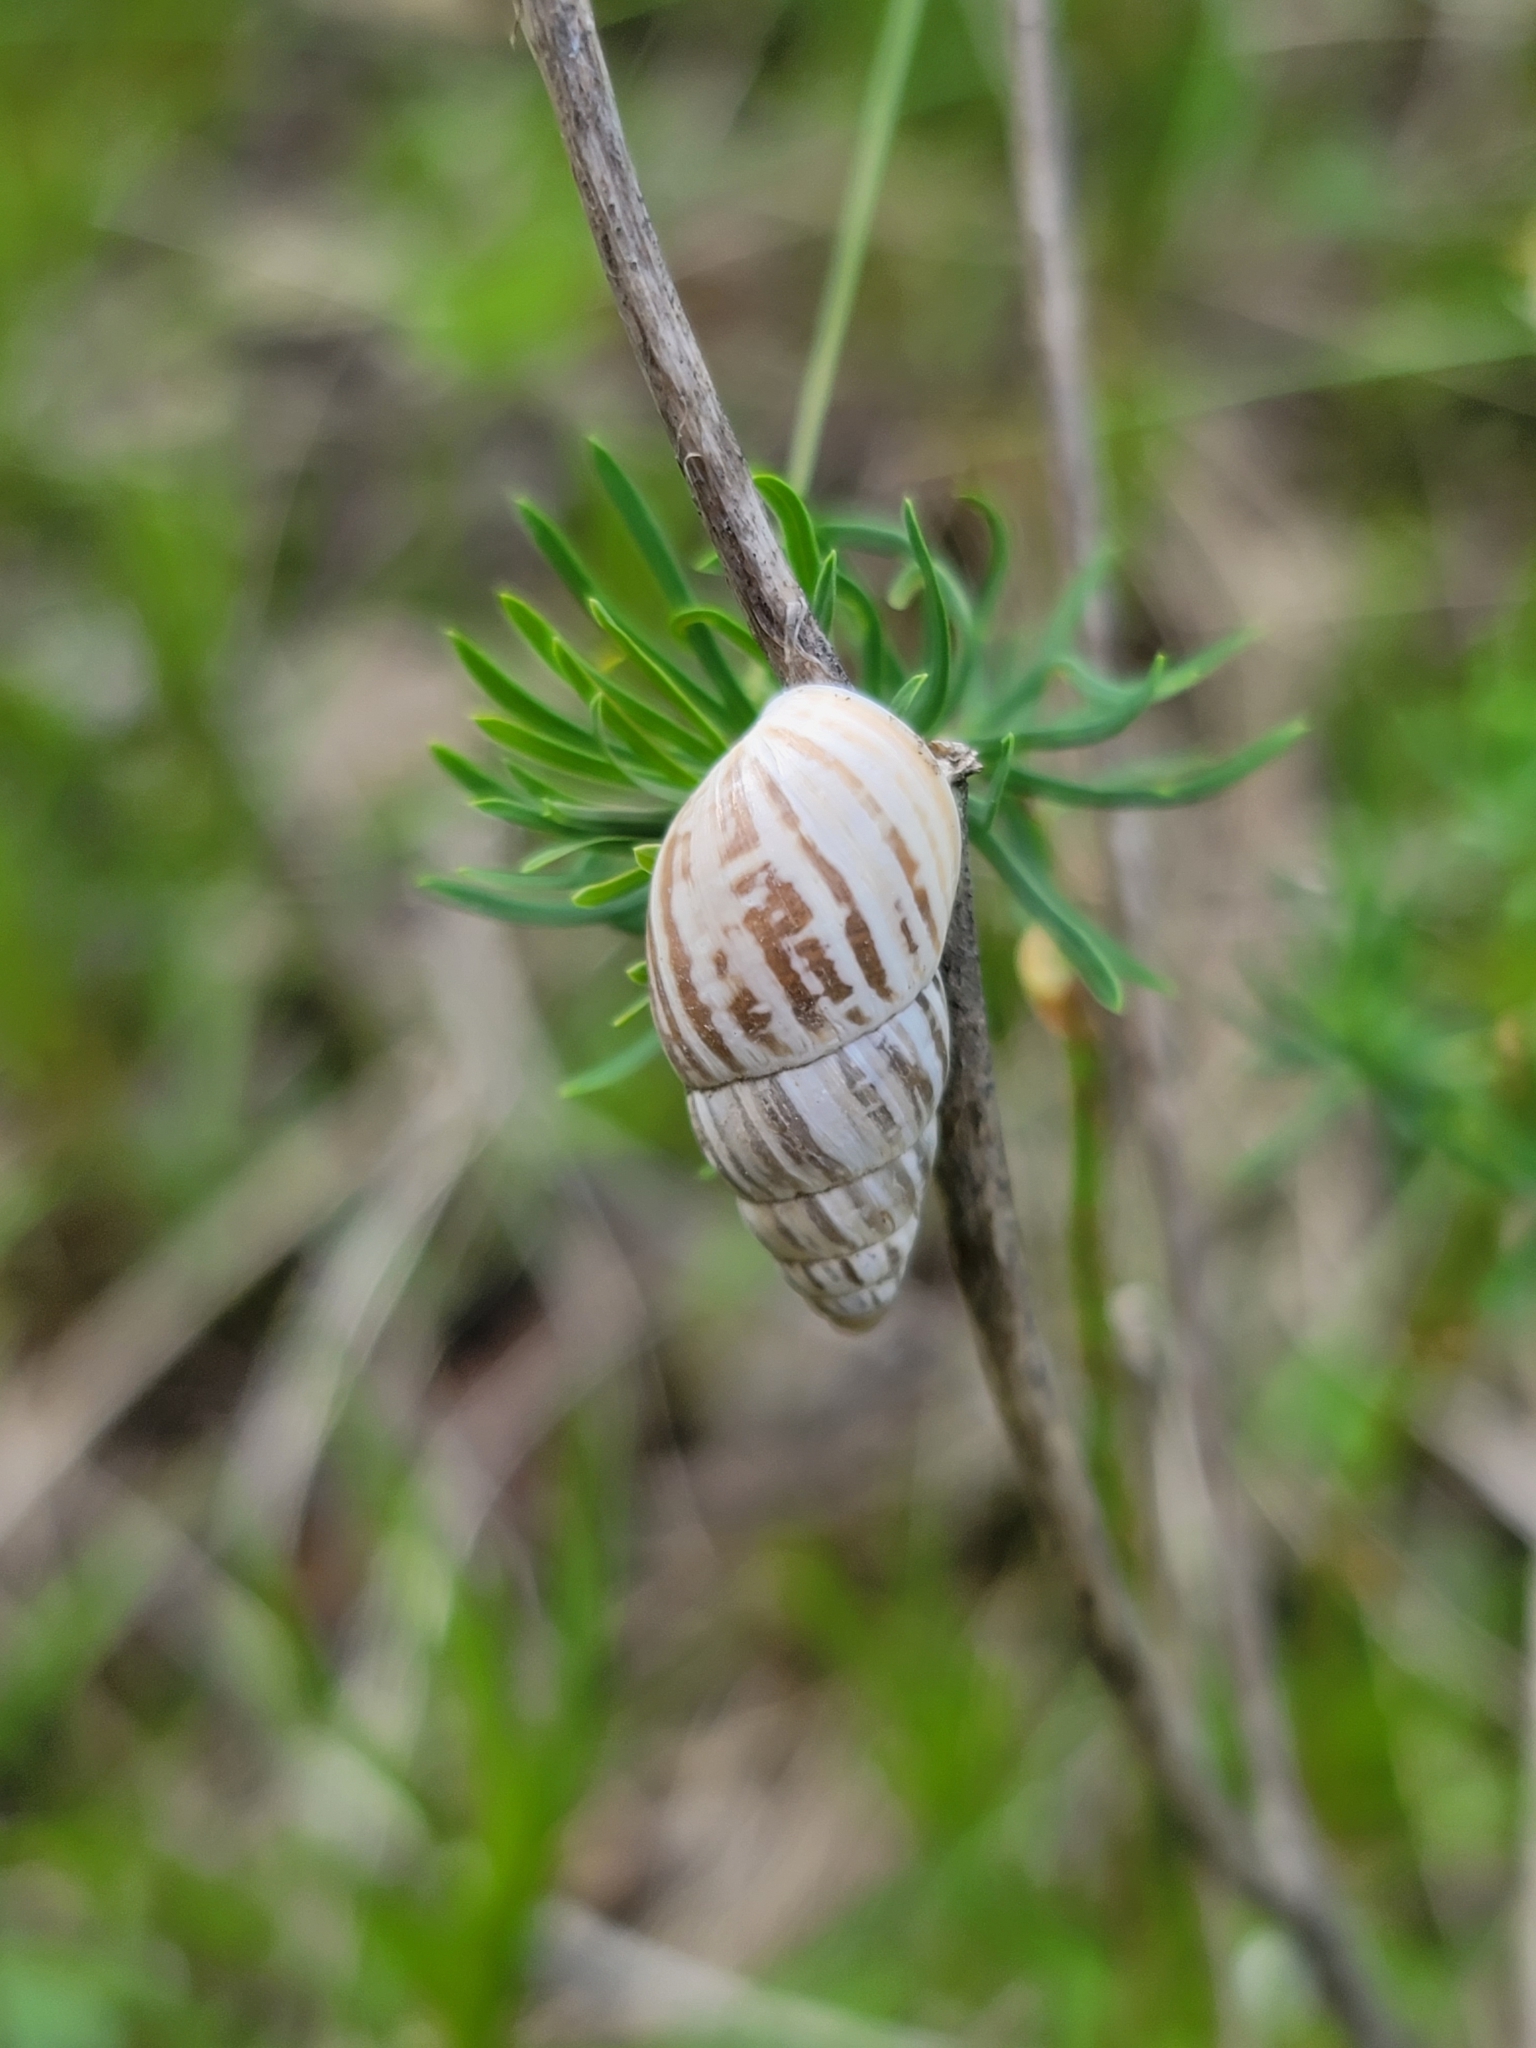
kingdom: Animalia
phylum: Mollusca
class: Gastropoda
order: Stylommatophora
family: Enidae
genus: Zebrina
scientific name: Zebrina detrita
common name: Large bulin
